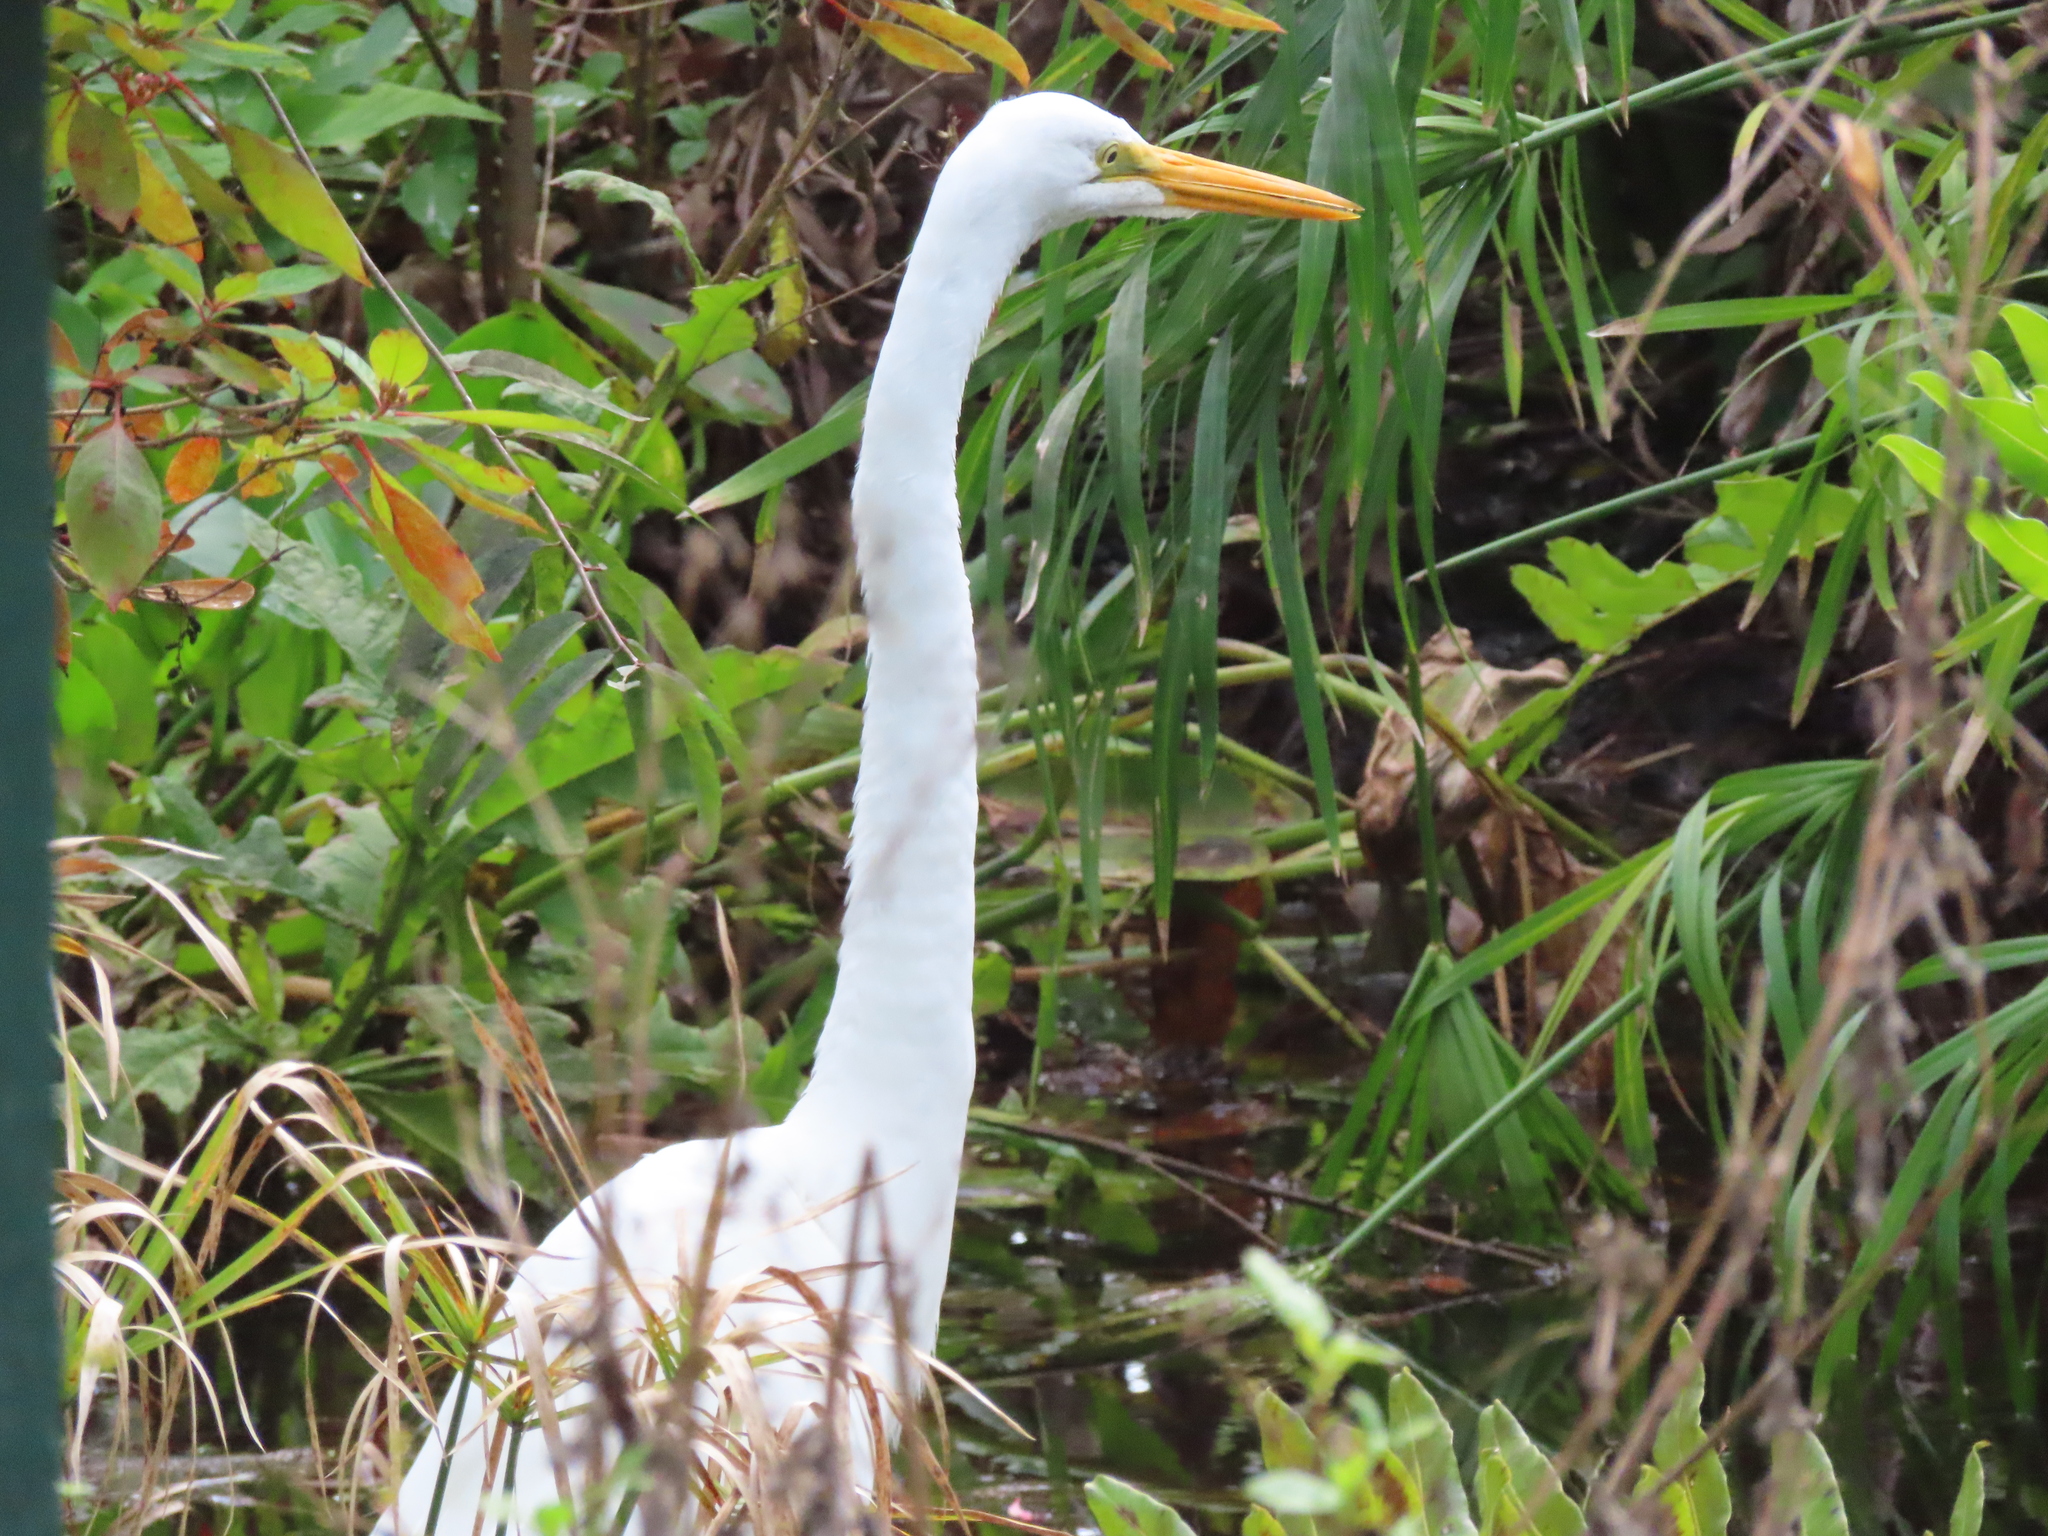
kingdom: Animalia
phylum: Chordata
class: Aves
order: Pelecaniformes
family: Ardeidae
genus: Ardea
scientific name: Ardea alba
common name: Great egret
